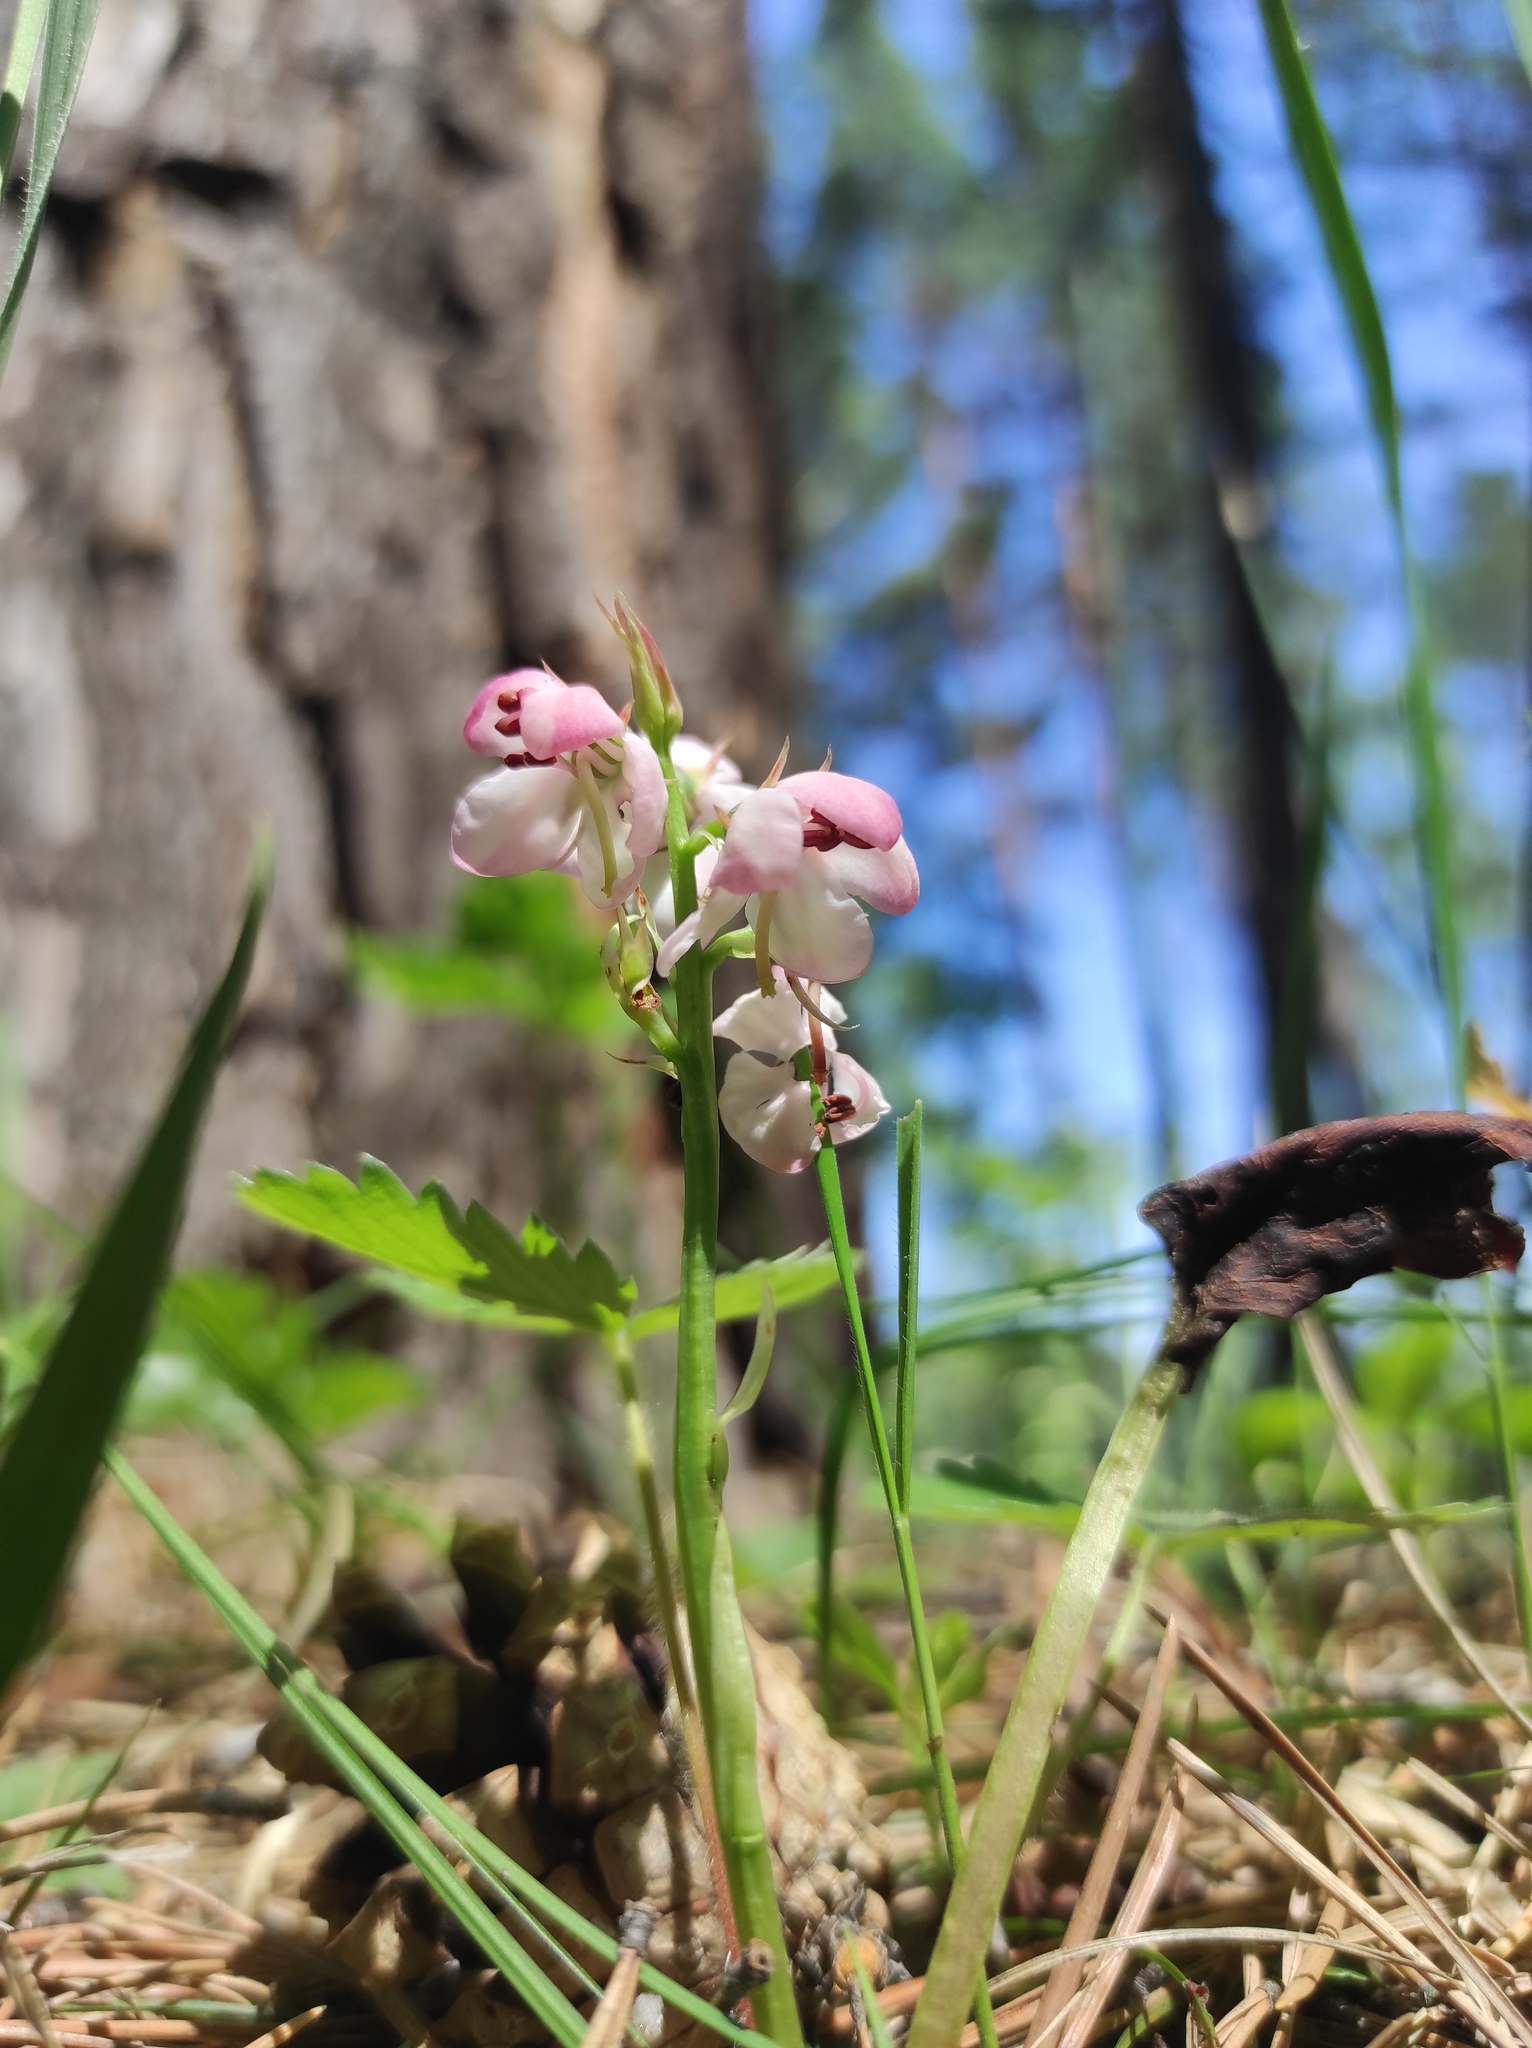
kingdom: Plantae
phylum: Tracheophyta
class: Magnoliopsida
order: Ericales
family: Ericaceae
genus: Pyrola
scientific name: Pyrola asarifolia
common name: Bog wintergreen
